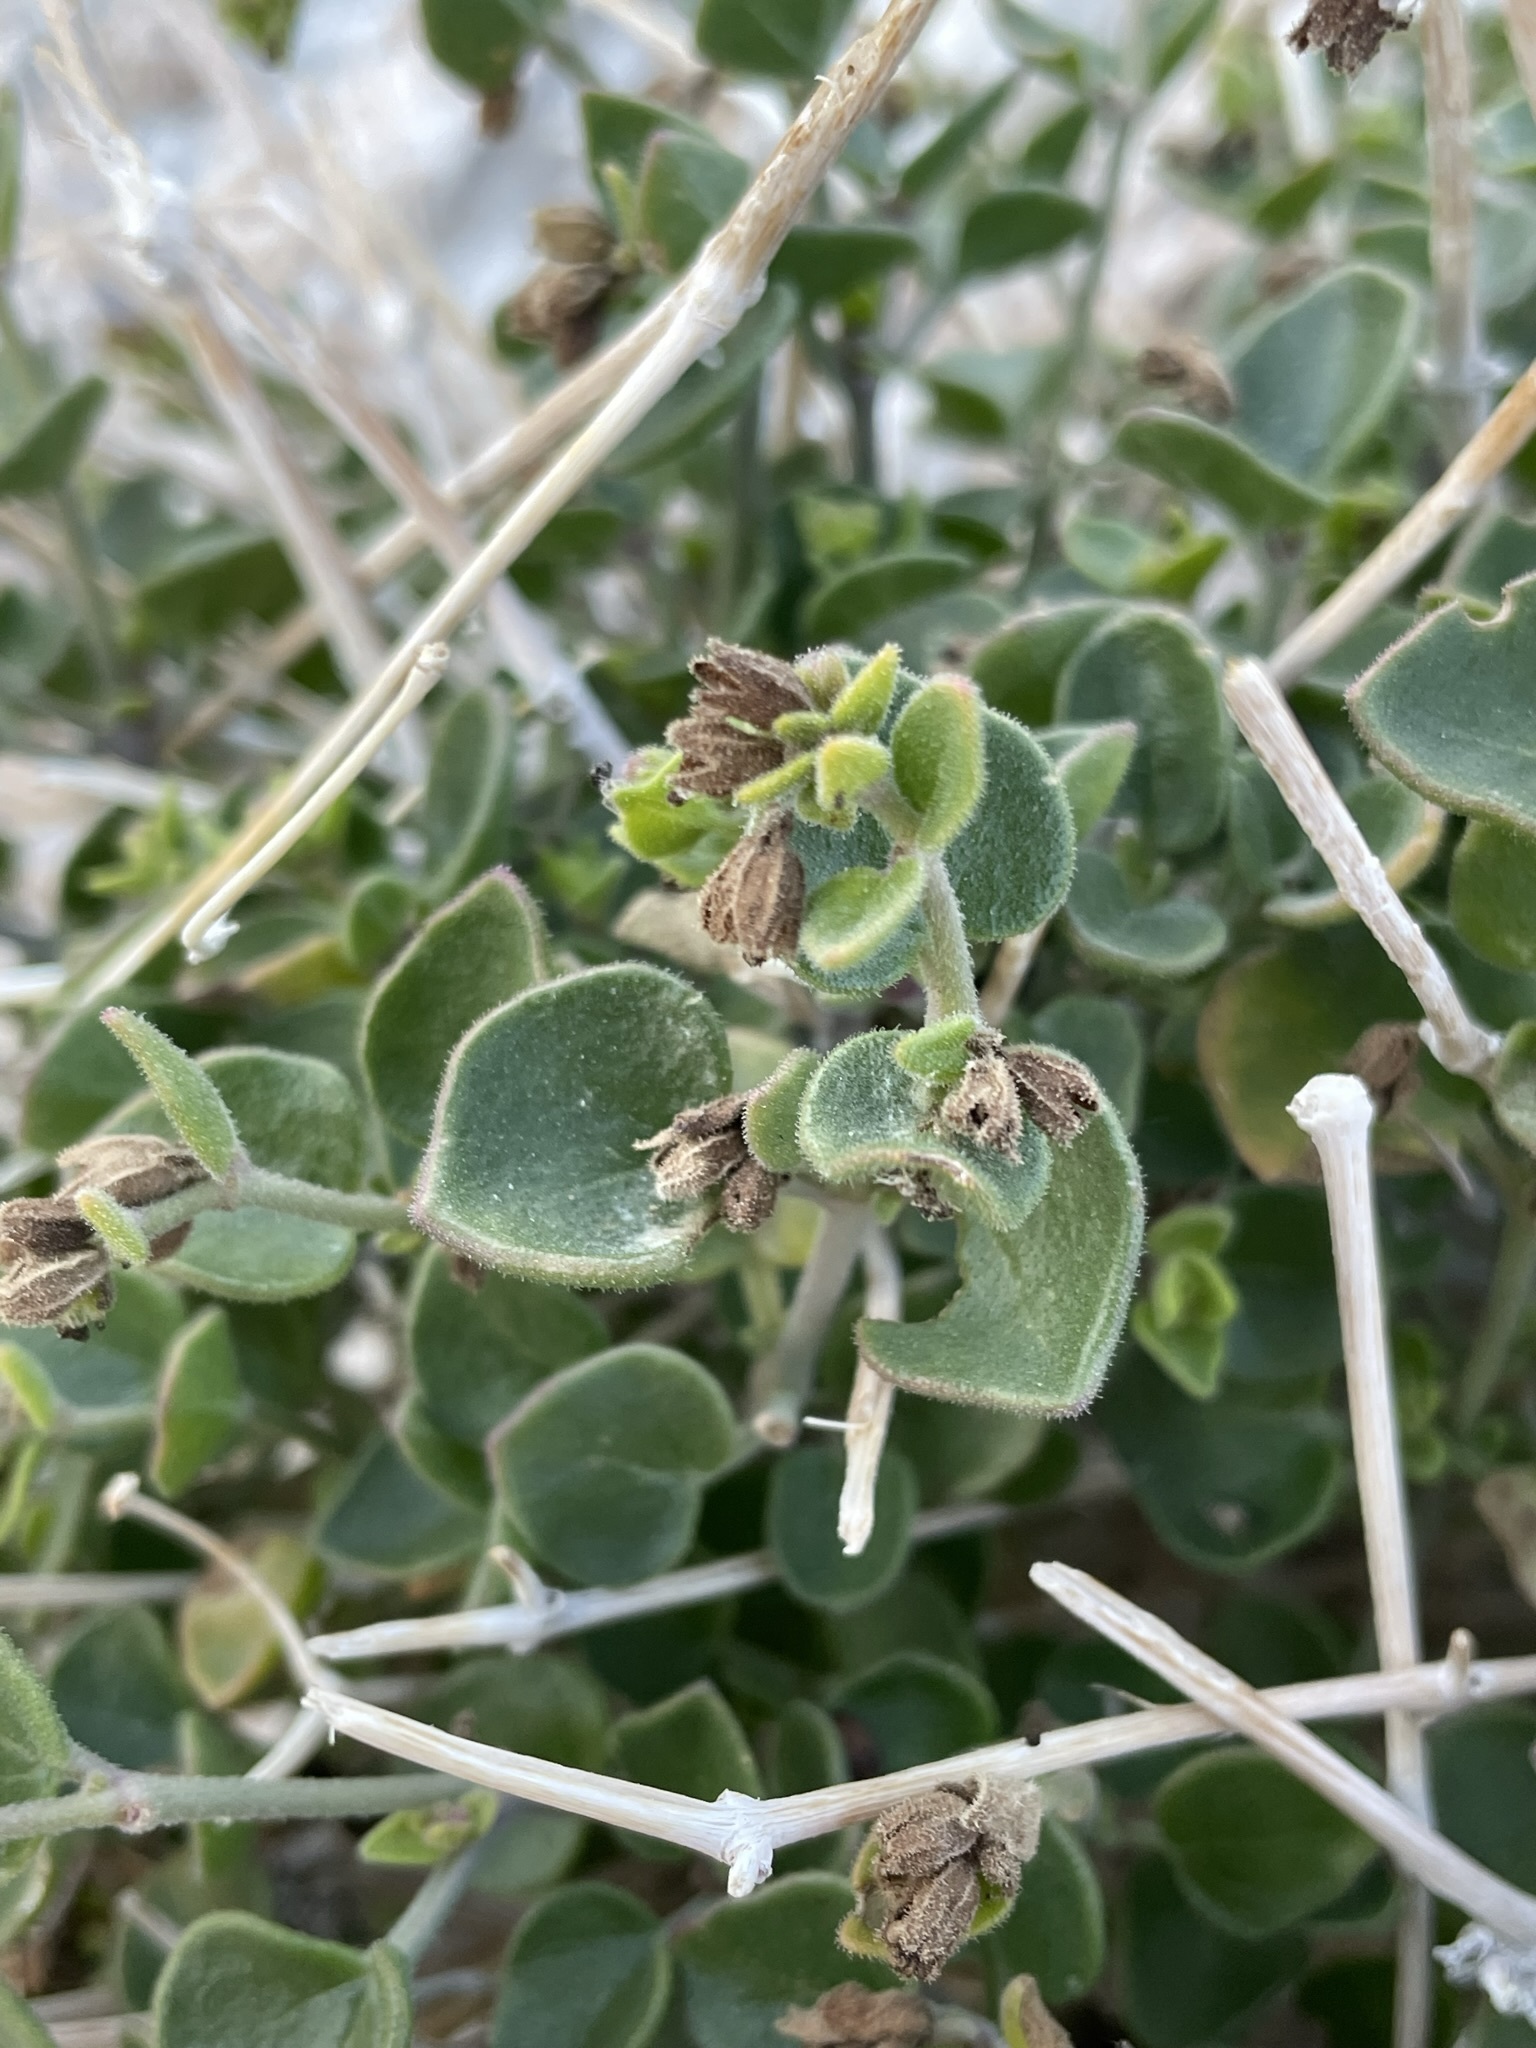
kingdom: Plantae
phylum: Tracheophyta
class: Magnoliopsida
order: Caryophyllales
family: Nyctaginaceae
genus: Mirabilis
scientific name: Mirabilis laevis
